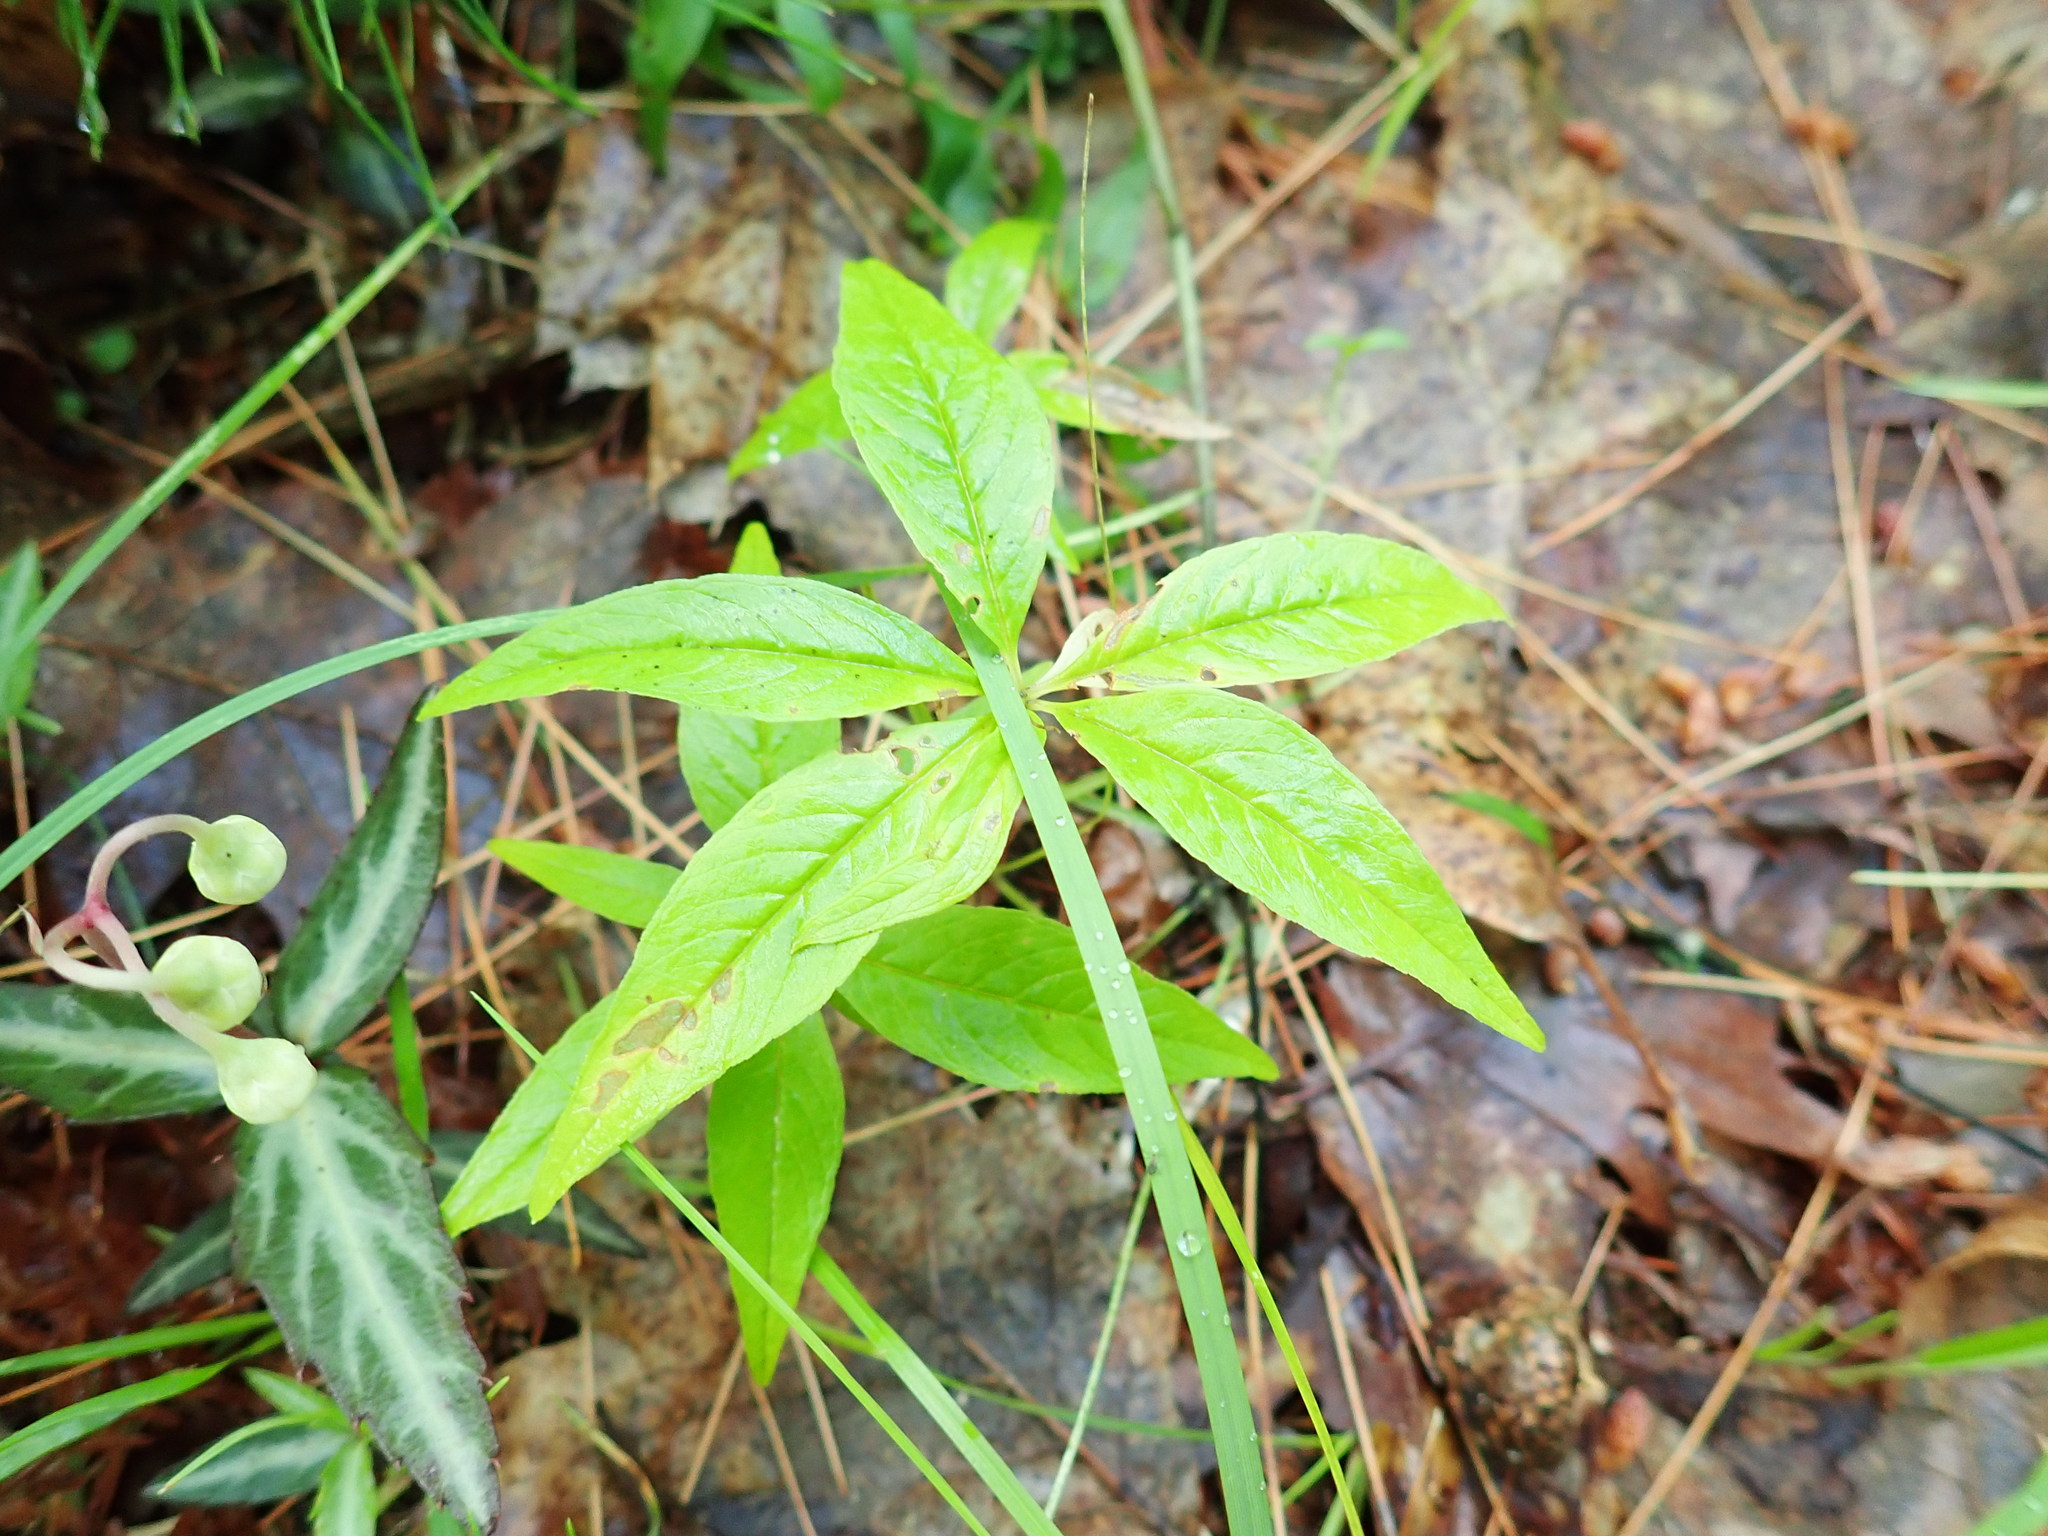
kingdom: Plantae
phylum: Tracheophyta
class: Magnoliopsida
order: Ericales
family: Primulaceae
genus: Lysimachia
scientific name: Lysimachia borealis
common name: American starflower
